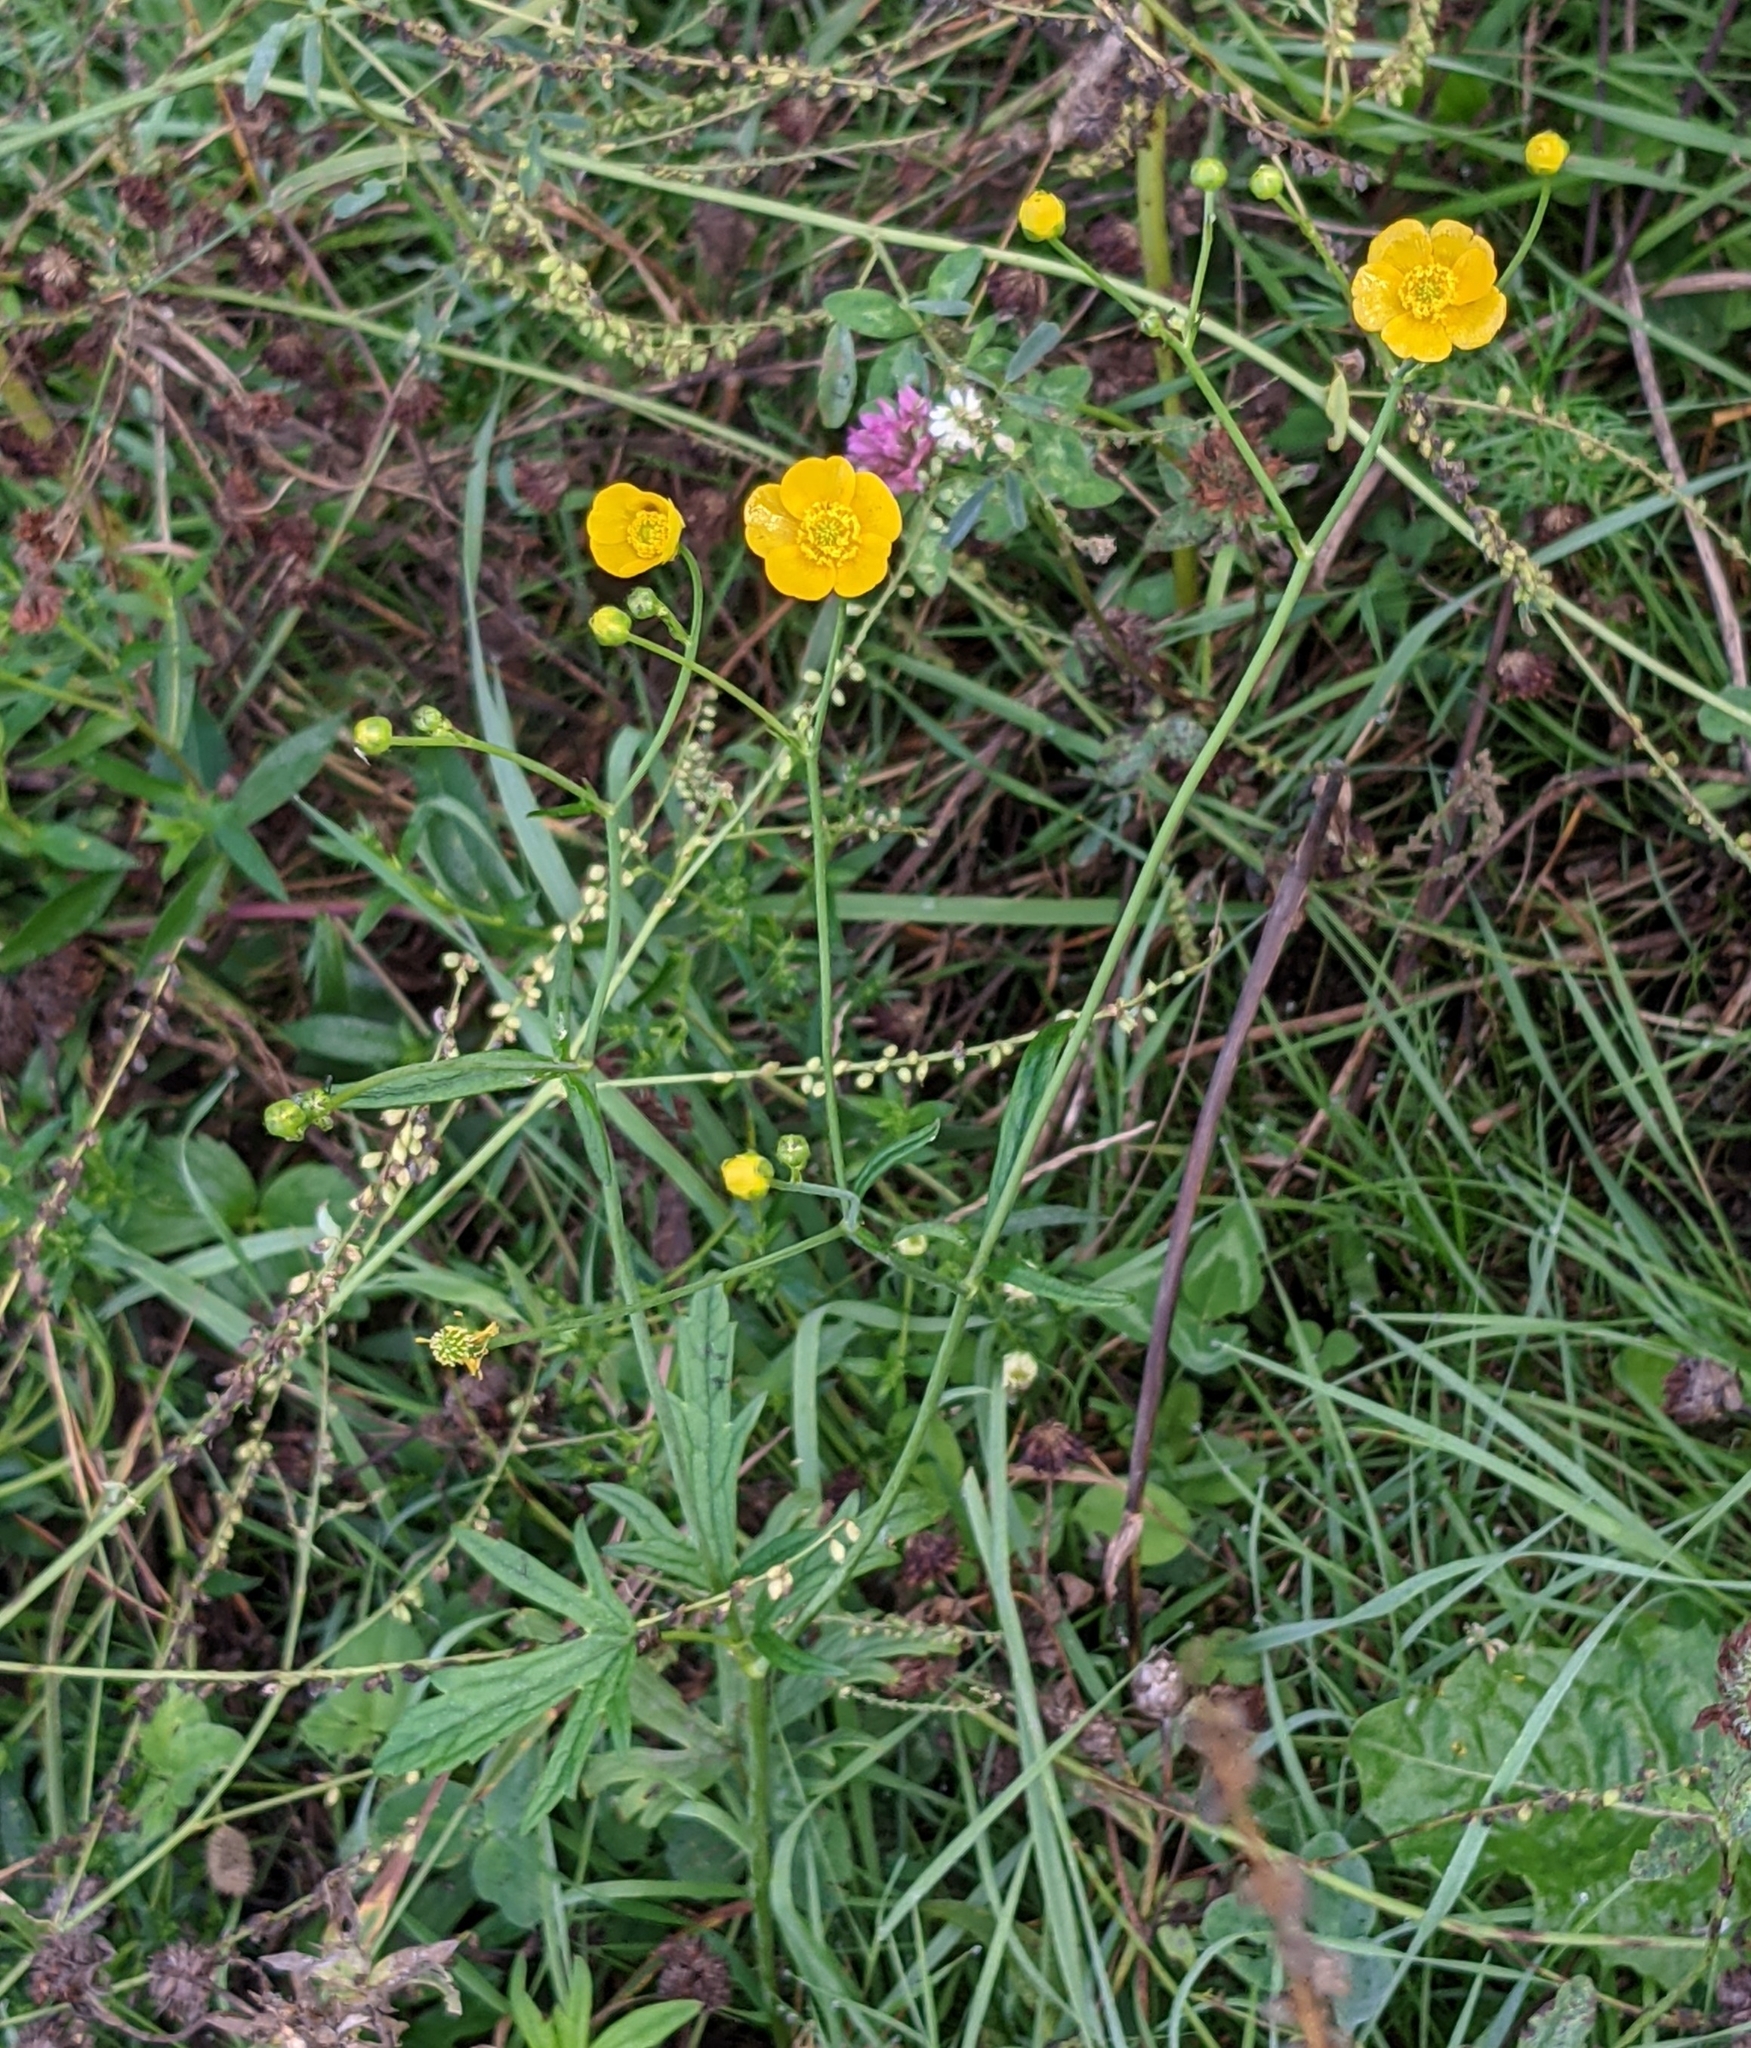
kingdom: Plantae
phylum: Tracheophyta
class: Magnoliopsida
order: Ranunculales
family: Ranunculaceae
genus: Ranunculus
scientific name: Ranunculus acris
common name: Meadow buttercup
